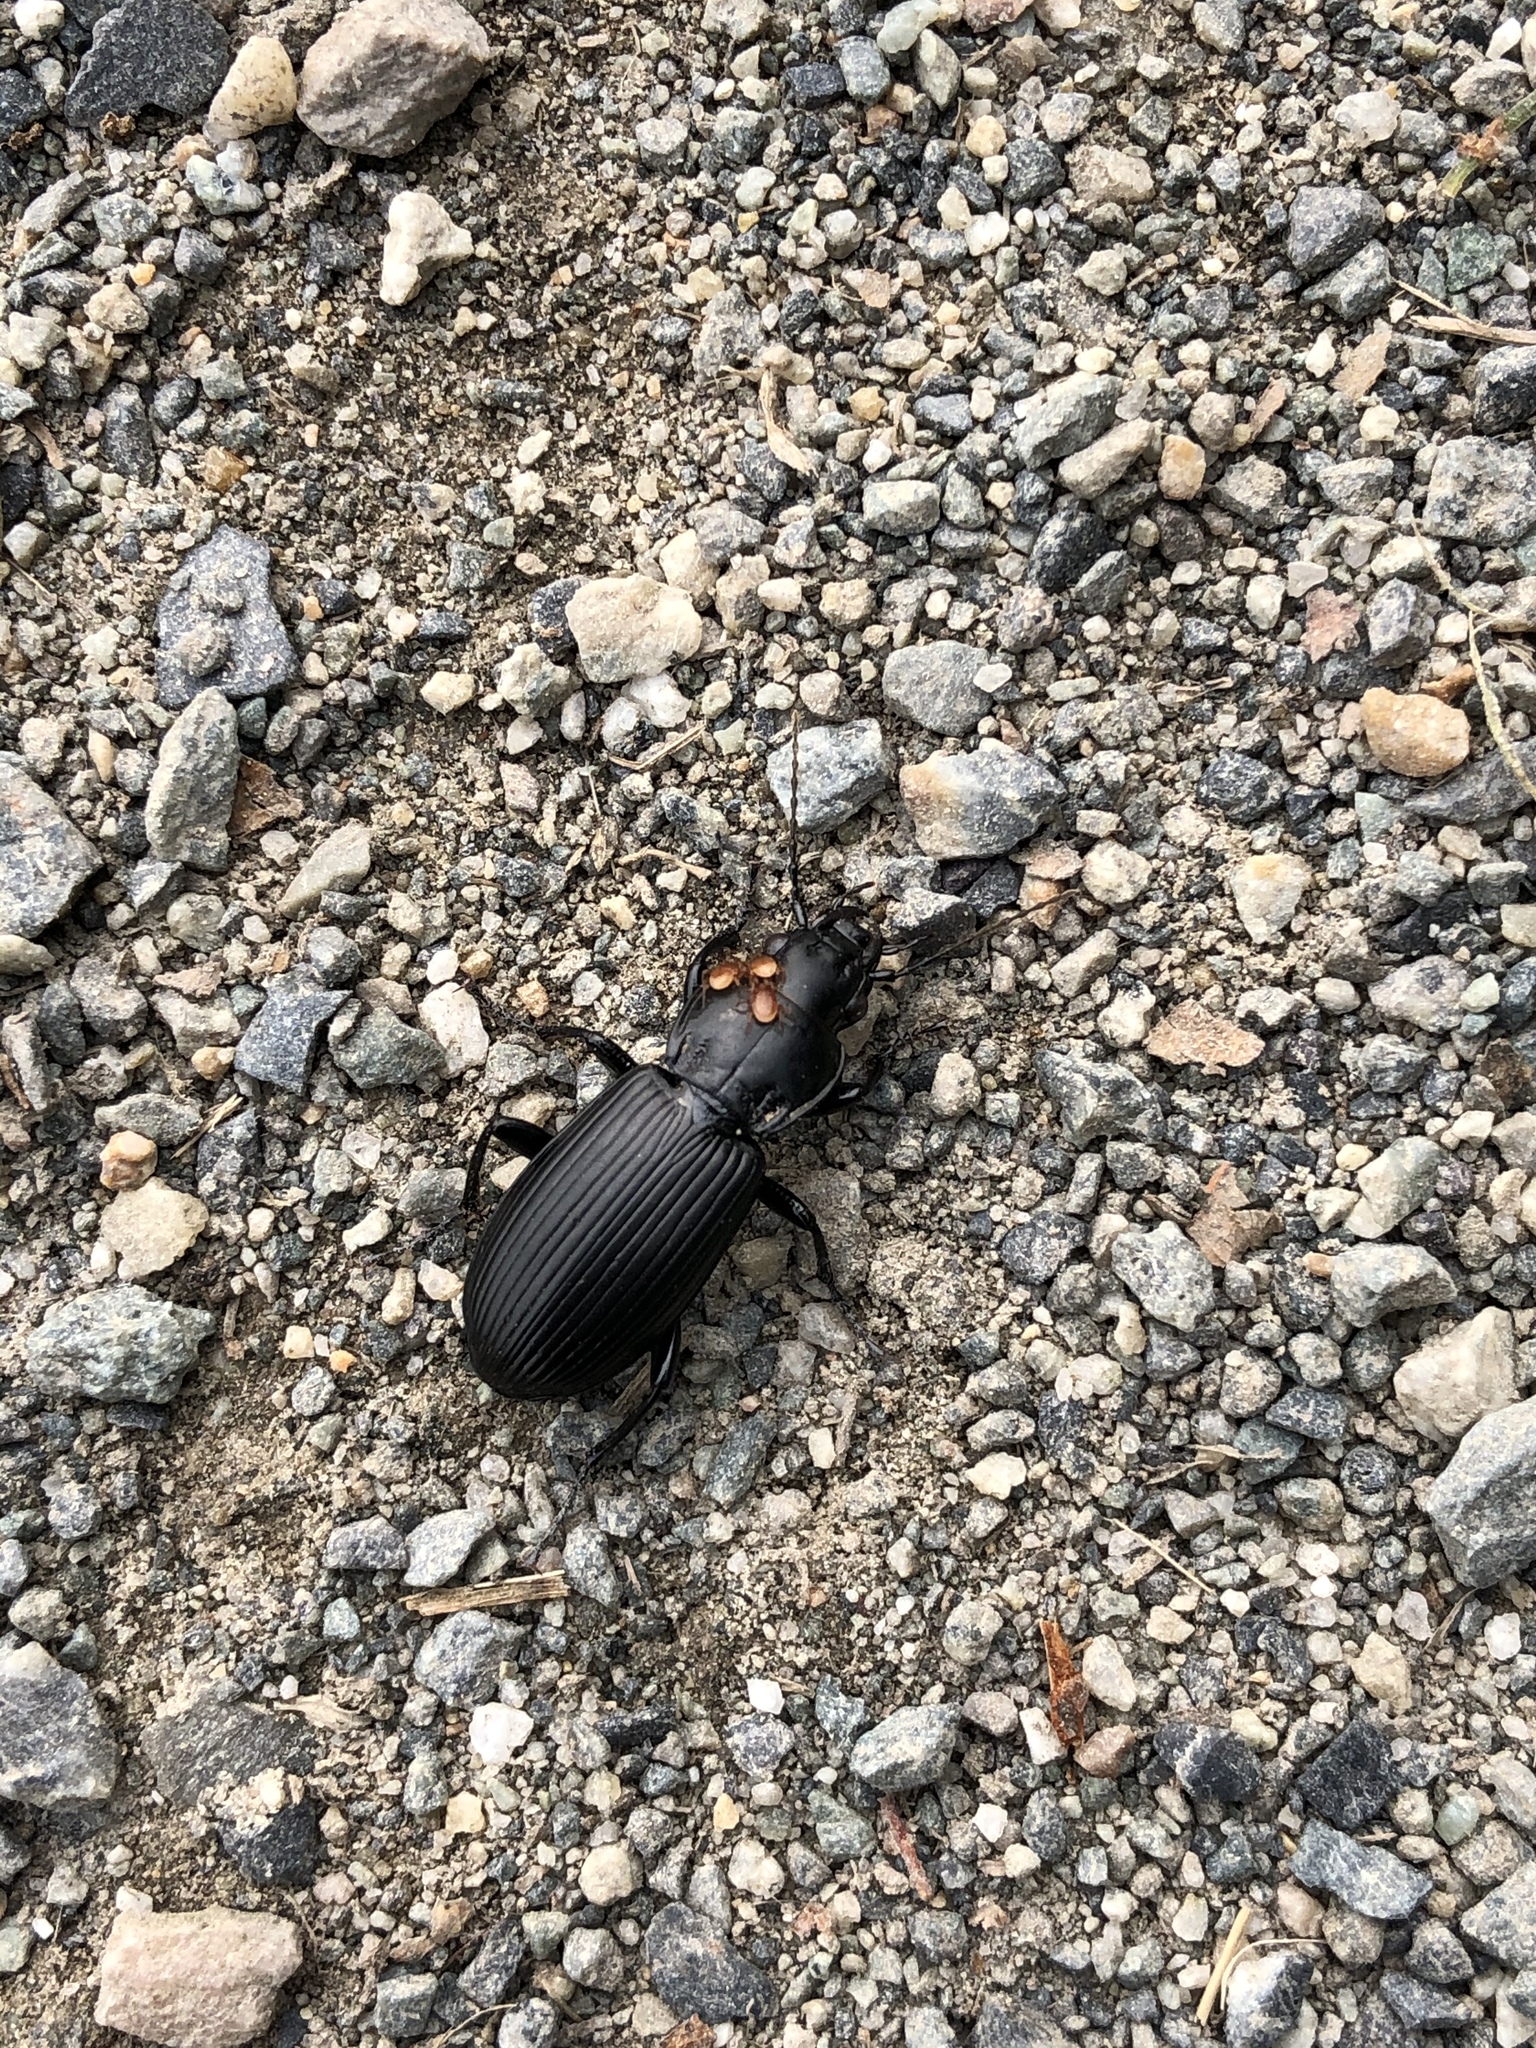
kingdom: Animalia
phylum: Arthropoda
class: Insecta
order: Coleoptera
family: Carabidae
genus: Pterostichus
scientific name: Pterostichus melanarius
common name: European dark harp ground beetle
